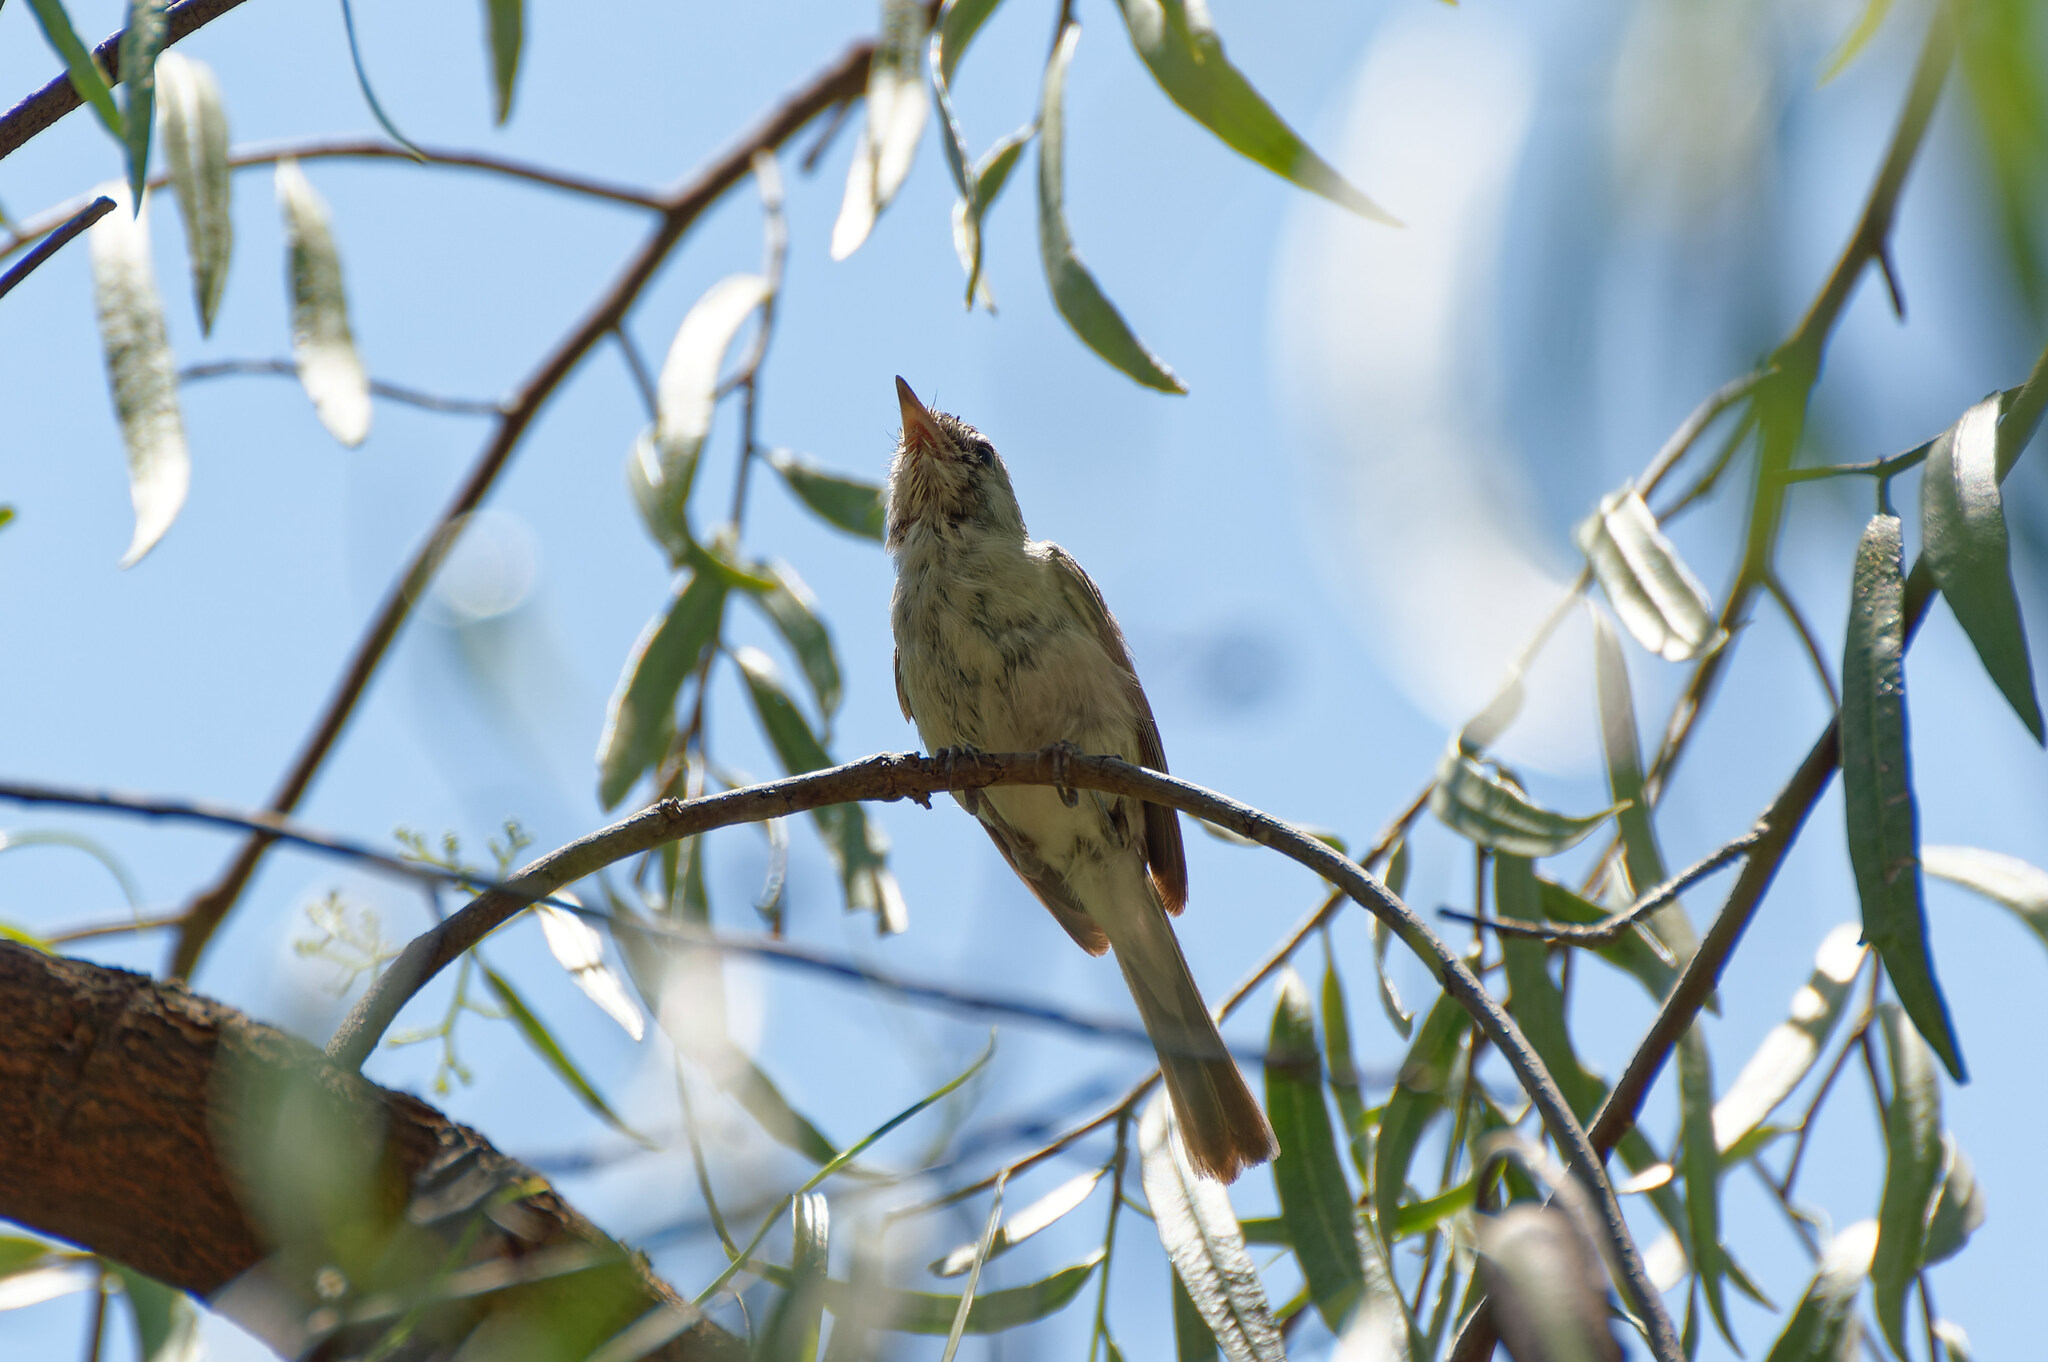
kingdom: Animalia
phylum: Chordata
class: Aves
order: Passeriformes
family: Vireonidae
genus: Vireo
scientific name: Vireo bellii
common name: Bell's vireo
